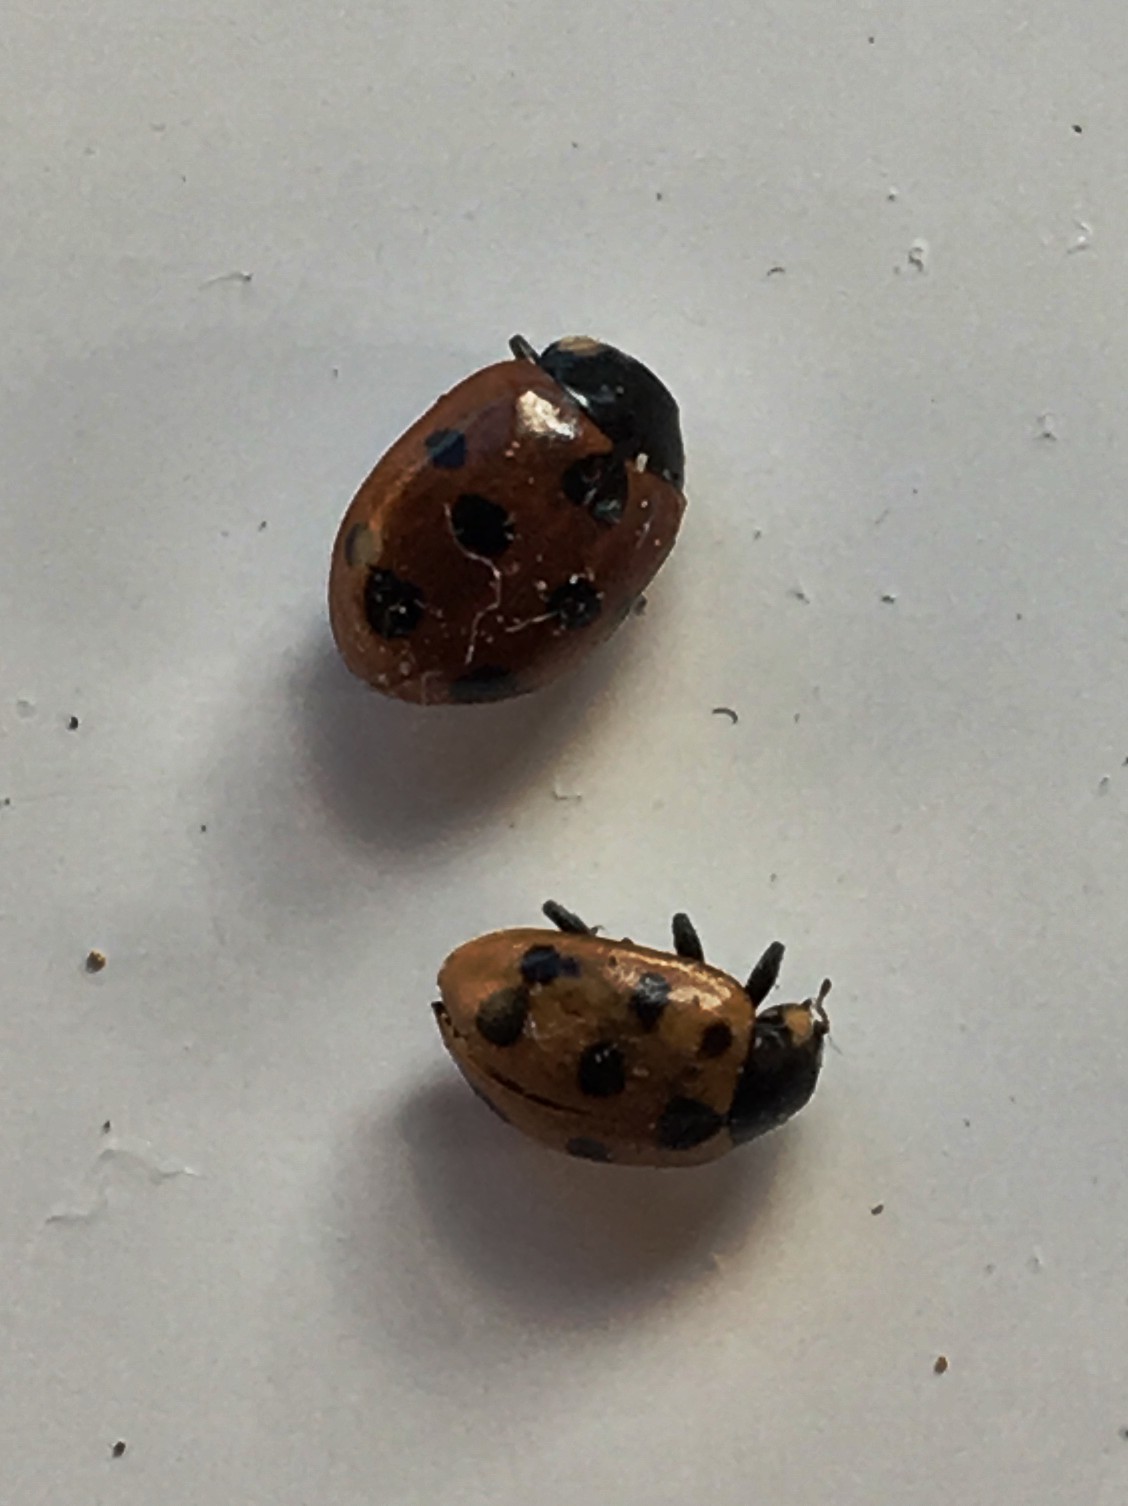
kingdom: Animalia
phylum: Arthropoda
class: Insecta
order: Coleoptera
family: Coccinellidae
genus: Coccinella
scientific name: Coccinella undecimpunctata
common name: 11-spot ladybird
